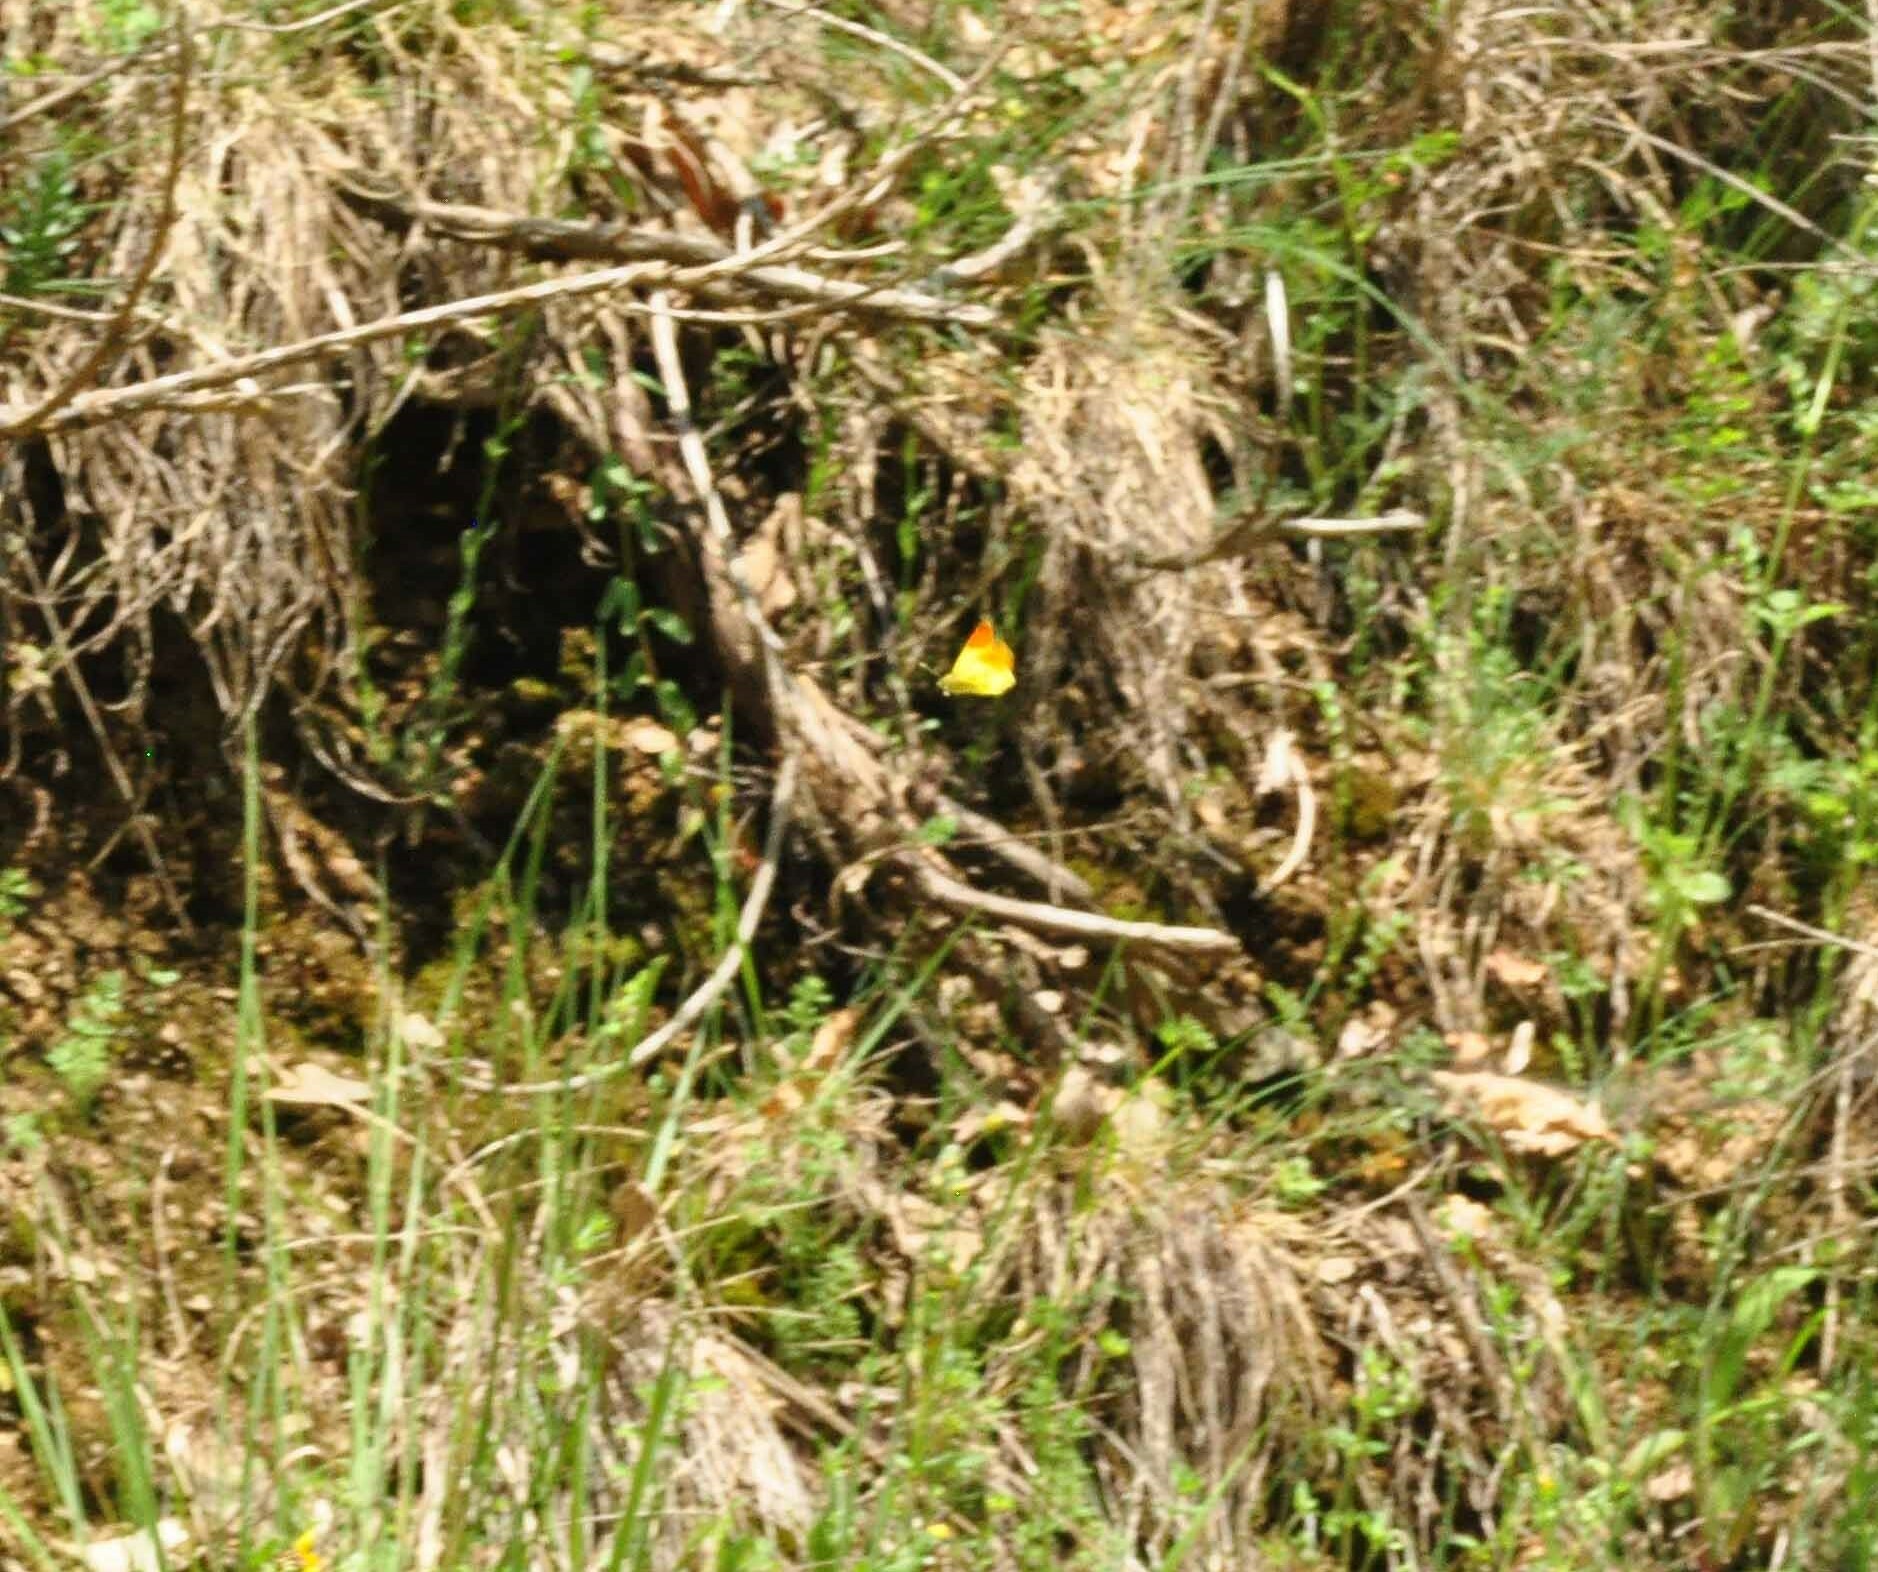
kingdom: Animalia
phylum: Arthropoda
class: Insecta
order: Lepidoptera
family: Pieridae
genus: Anthocharis
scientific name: Anthocharis euphenoides
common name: Provence orange-tip
